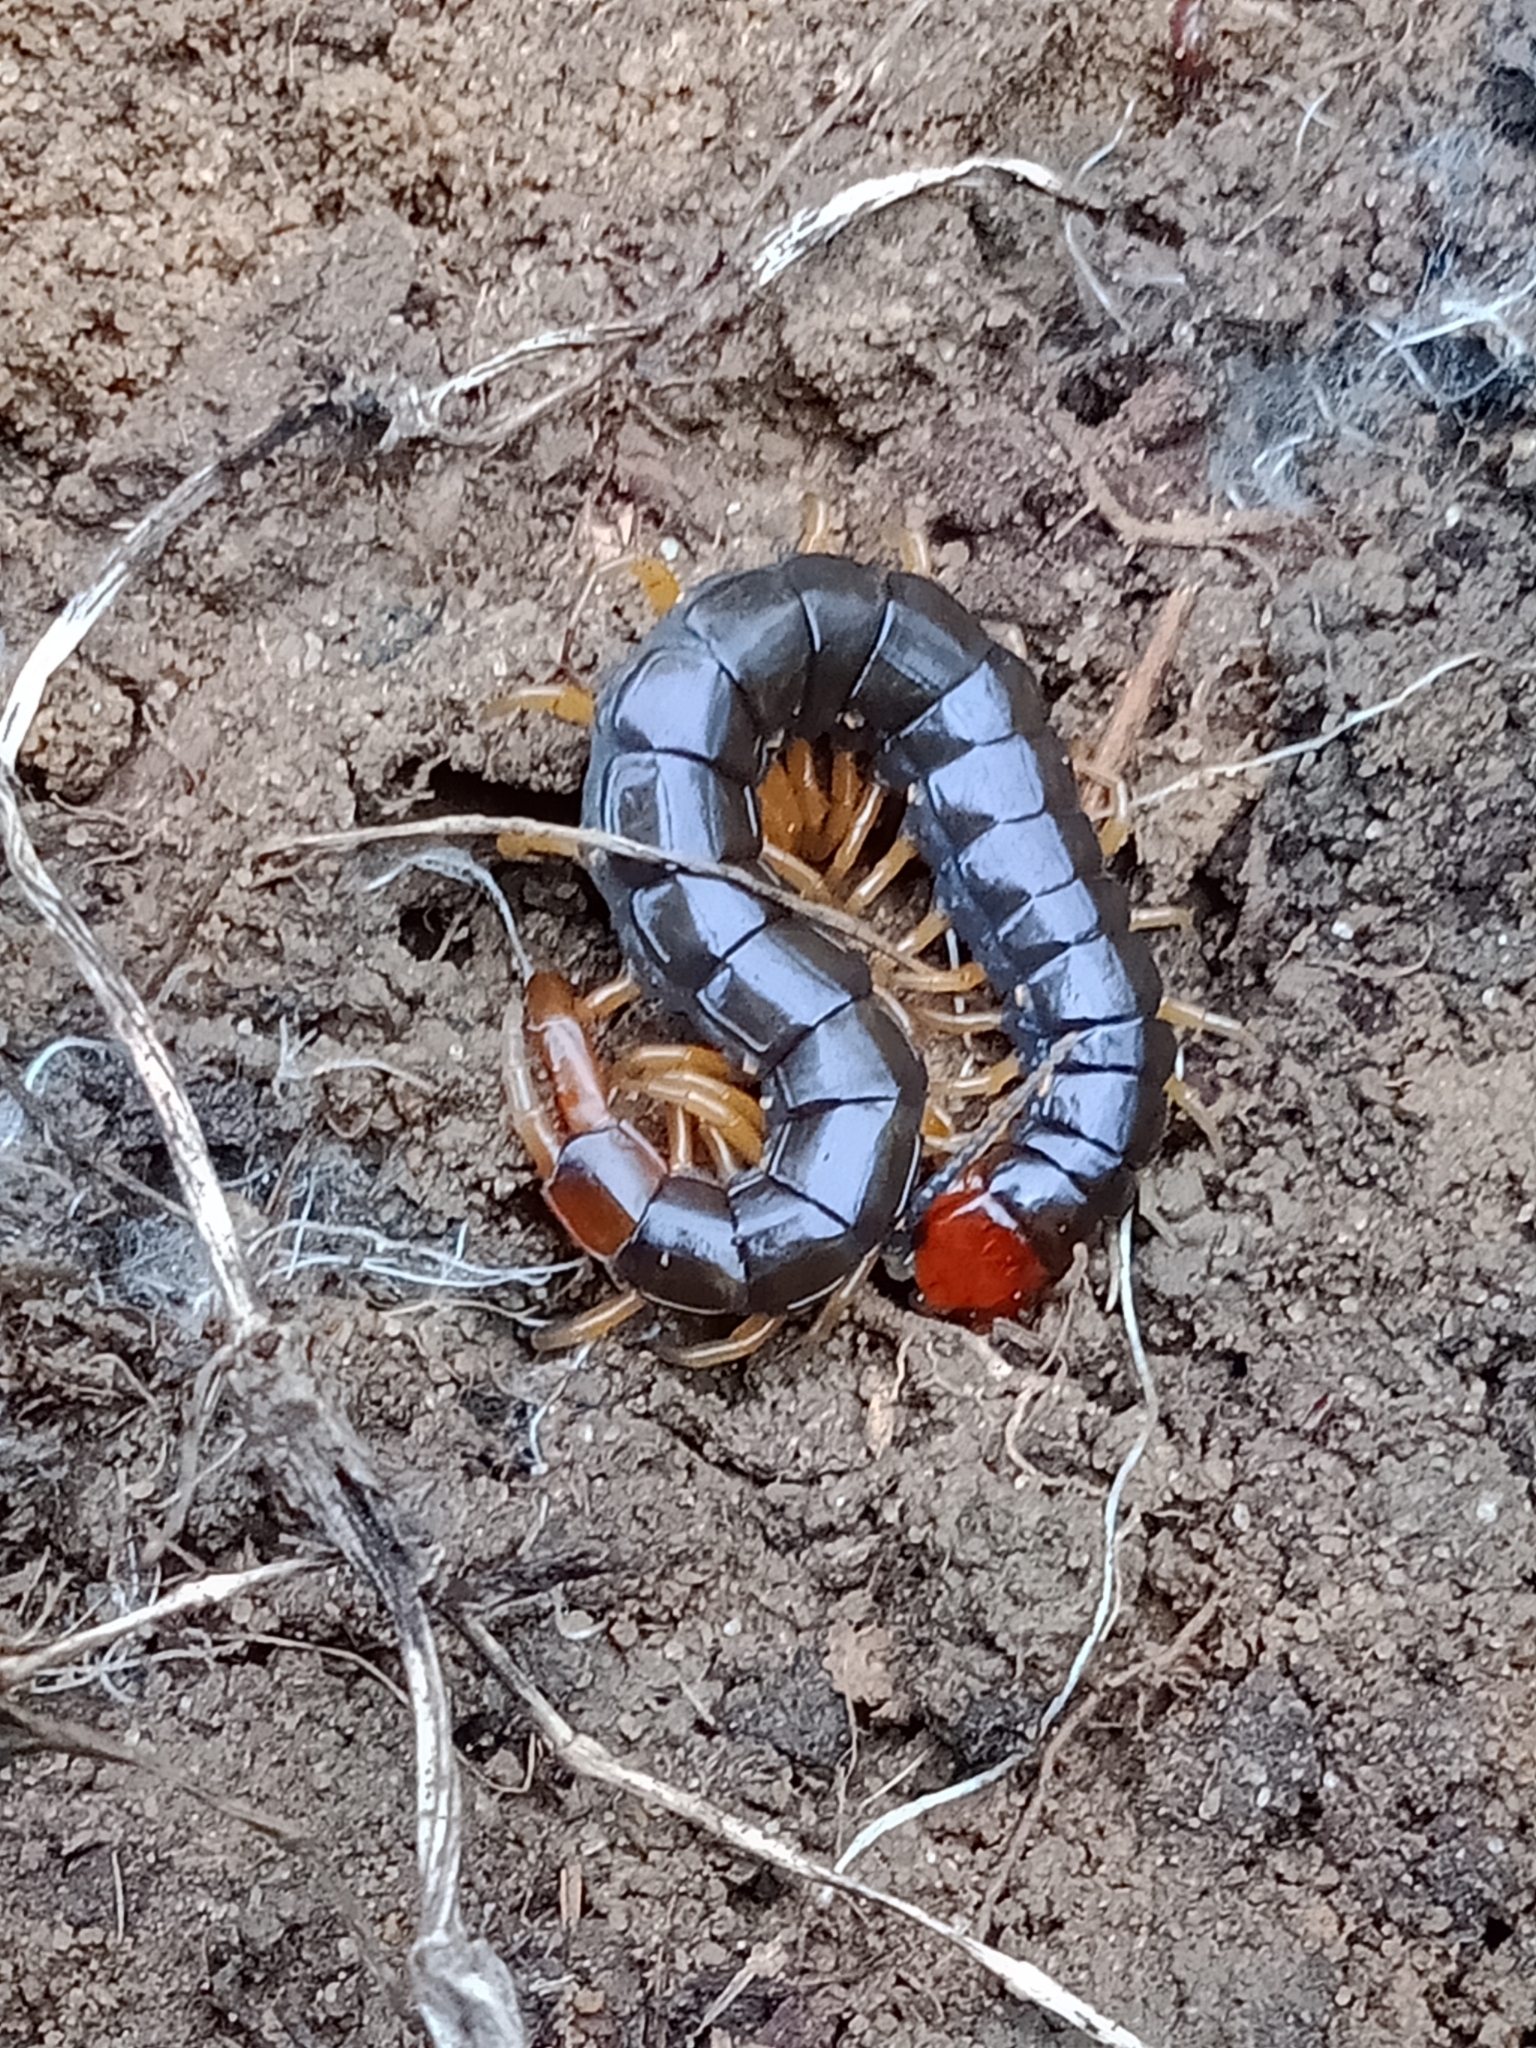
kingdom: Animalia
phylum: Arthropoda
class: Chilopoda
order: Scolopendromorpha
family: Scolopendridae
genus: Cormocephalus
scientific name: Cormocephalus westwoodi
